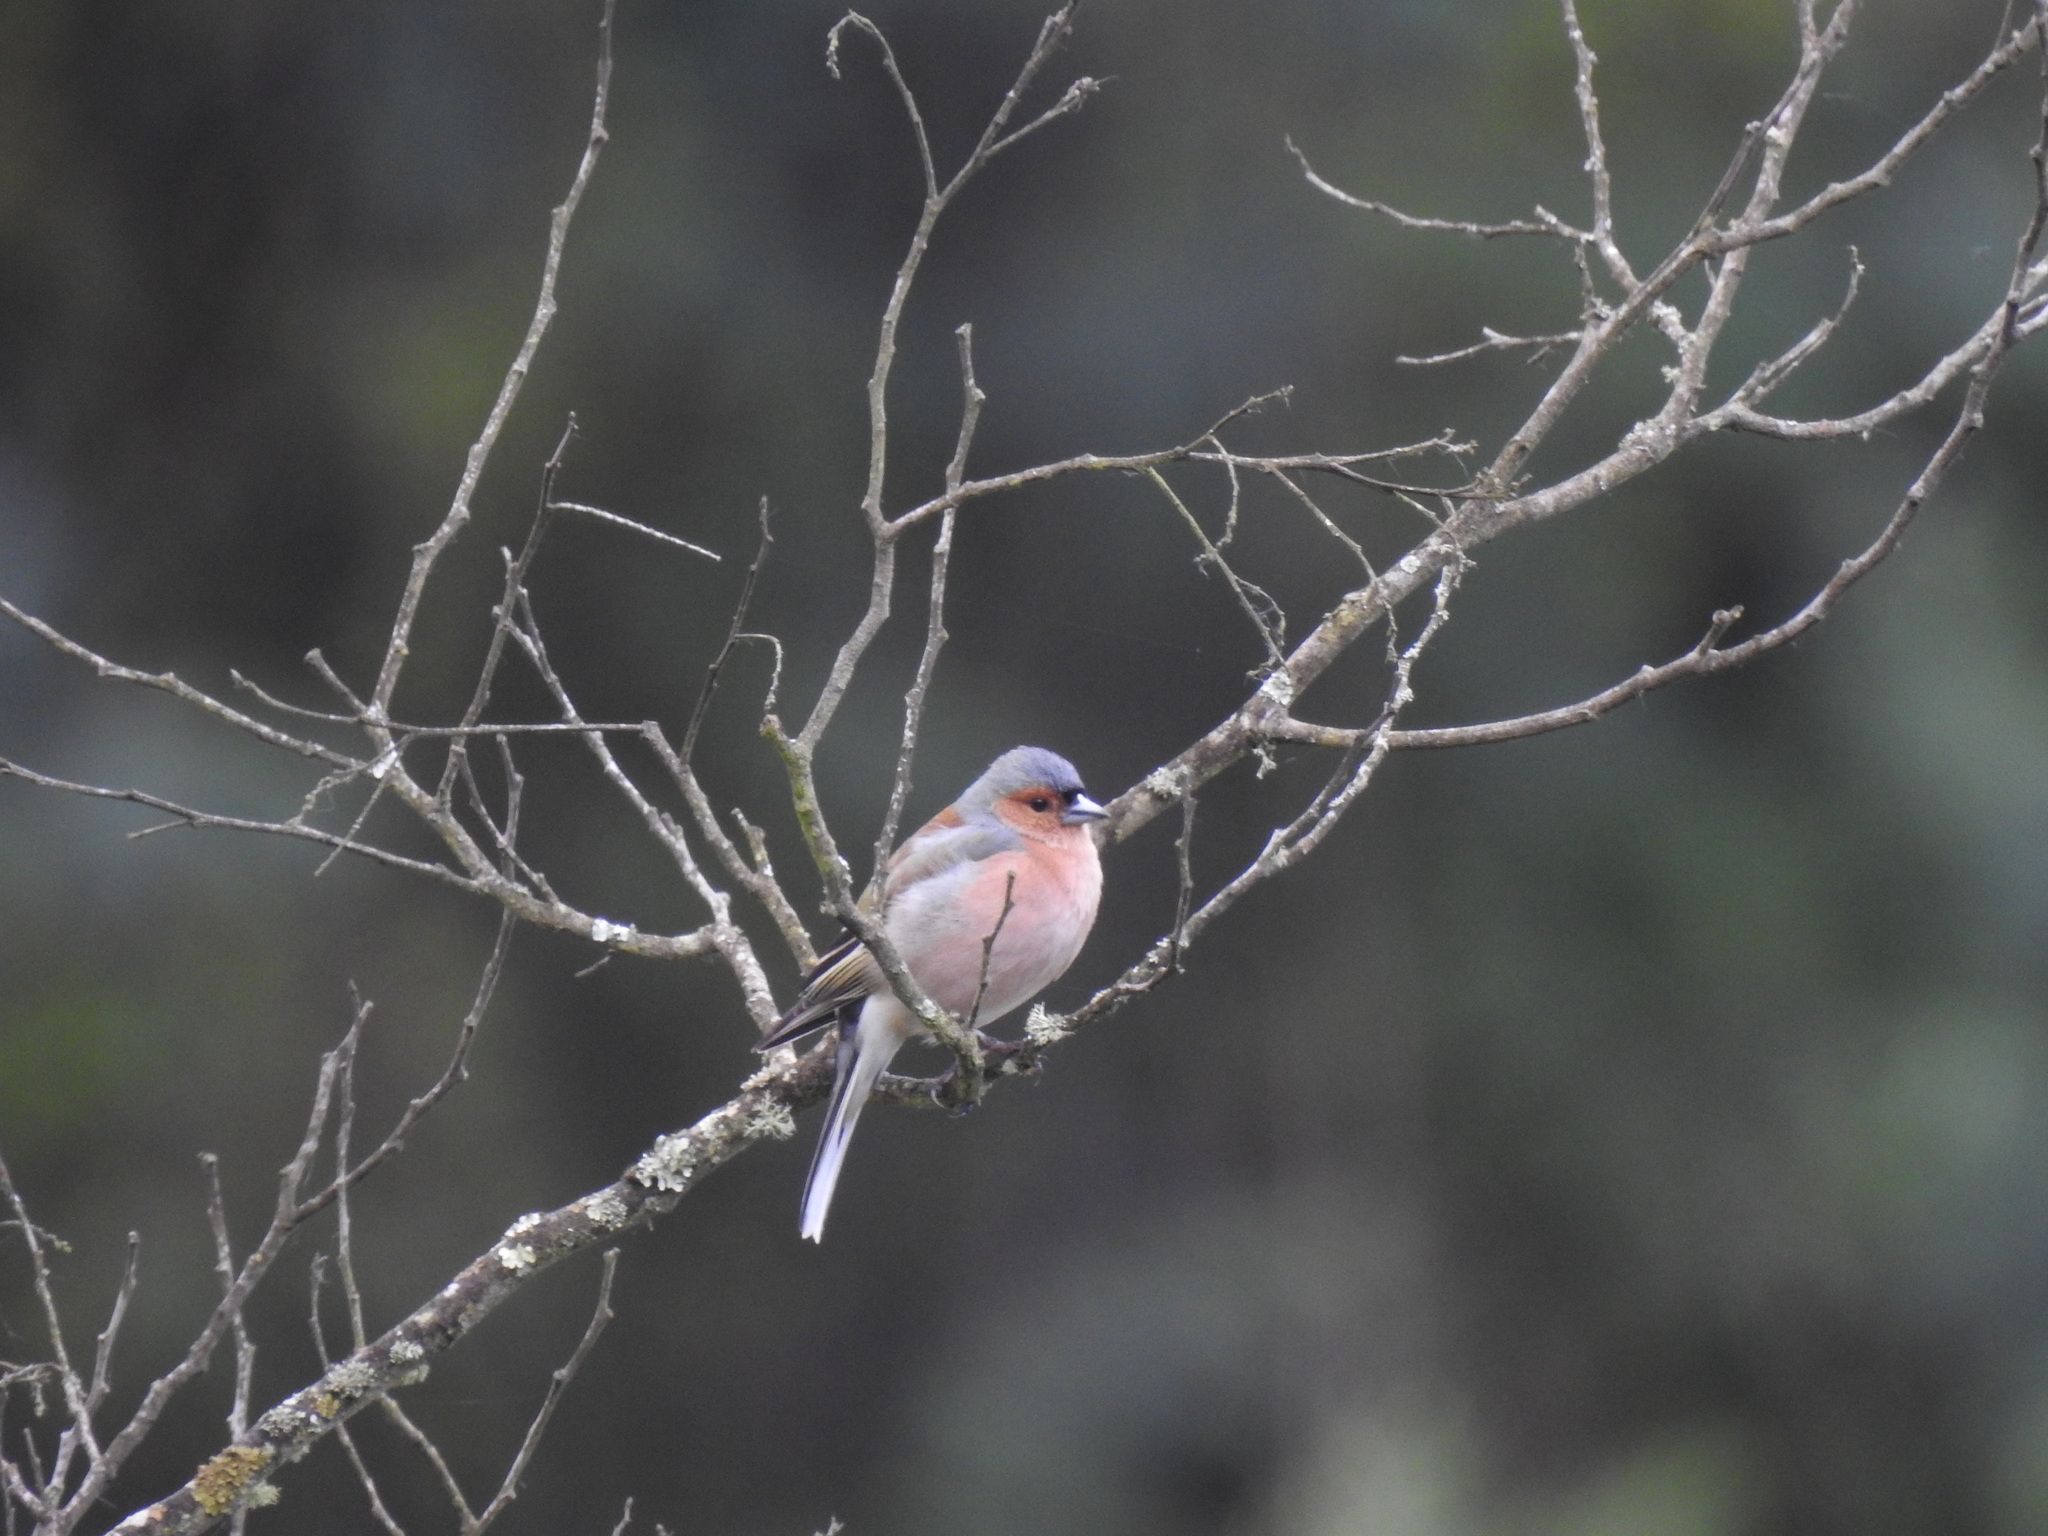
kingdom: Animalia
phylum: Chordata
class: Aves
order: Passeriformes
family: Fringillidae
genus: Fringilla
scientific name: Fringilla coelebs
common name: Common chaffinch
